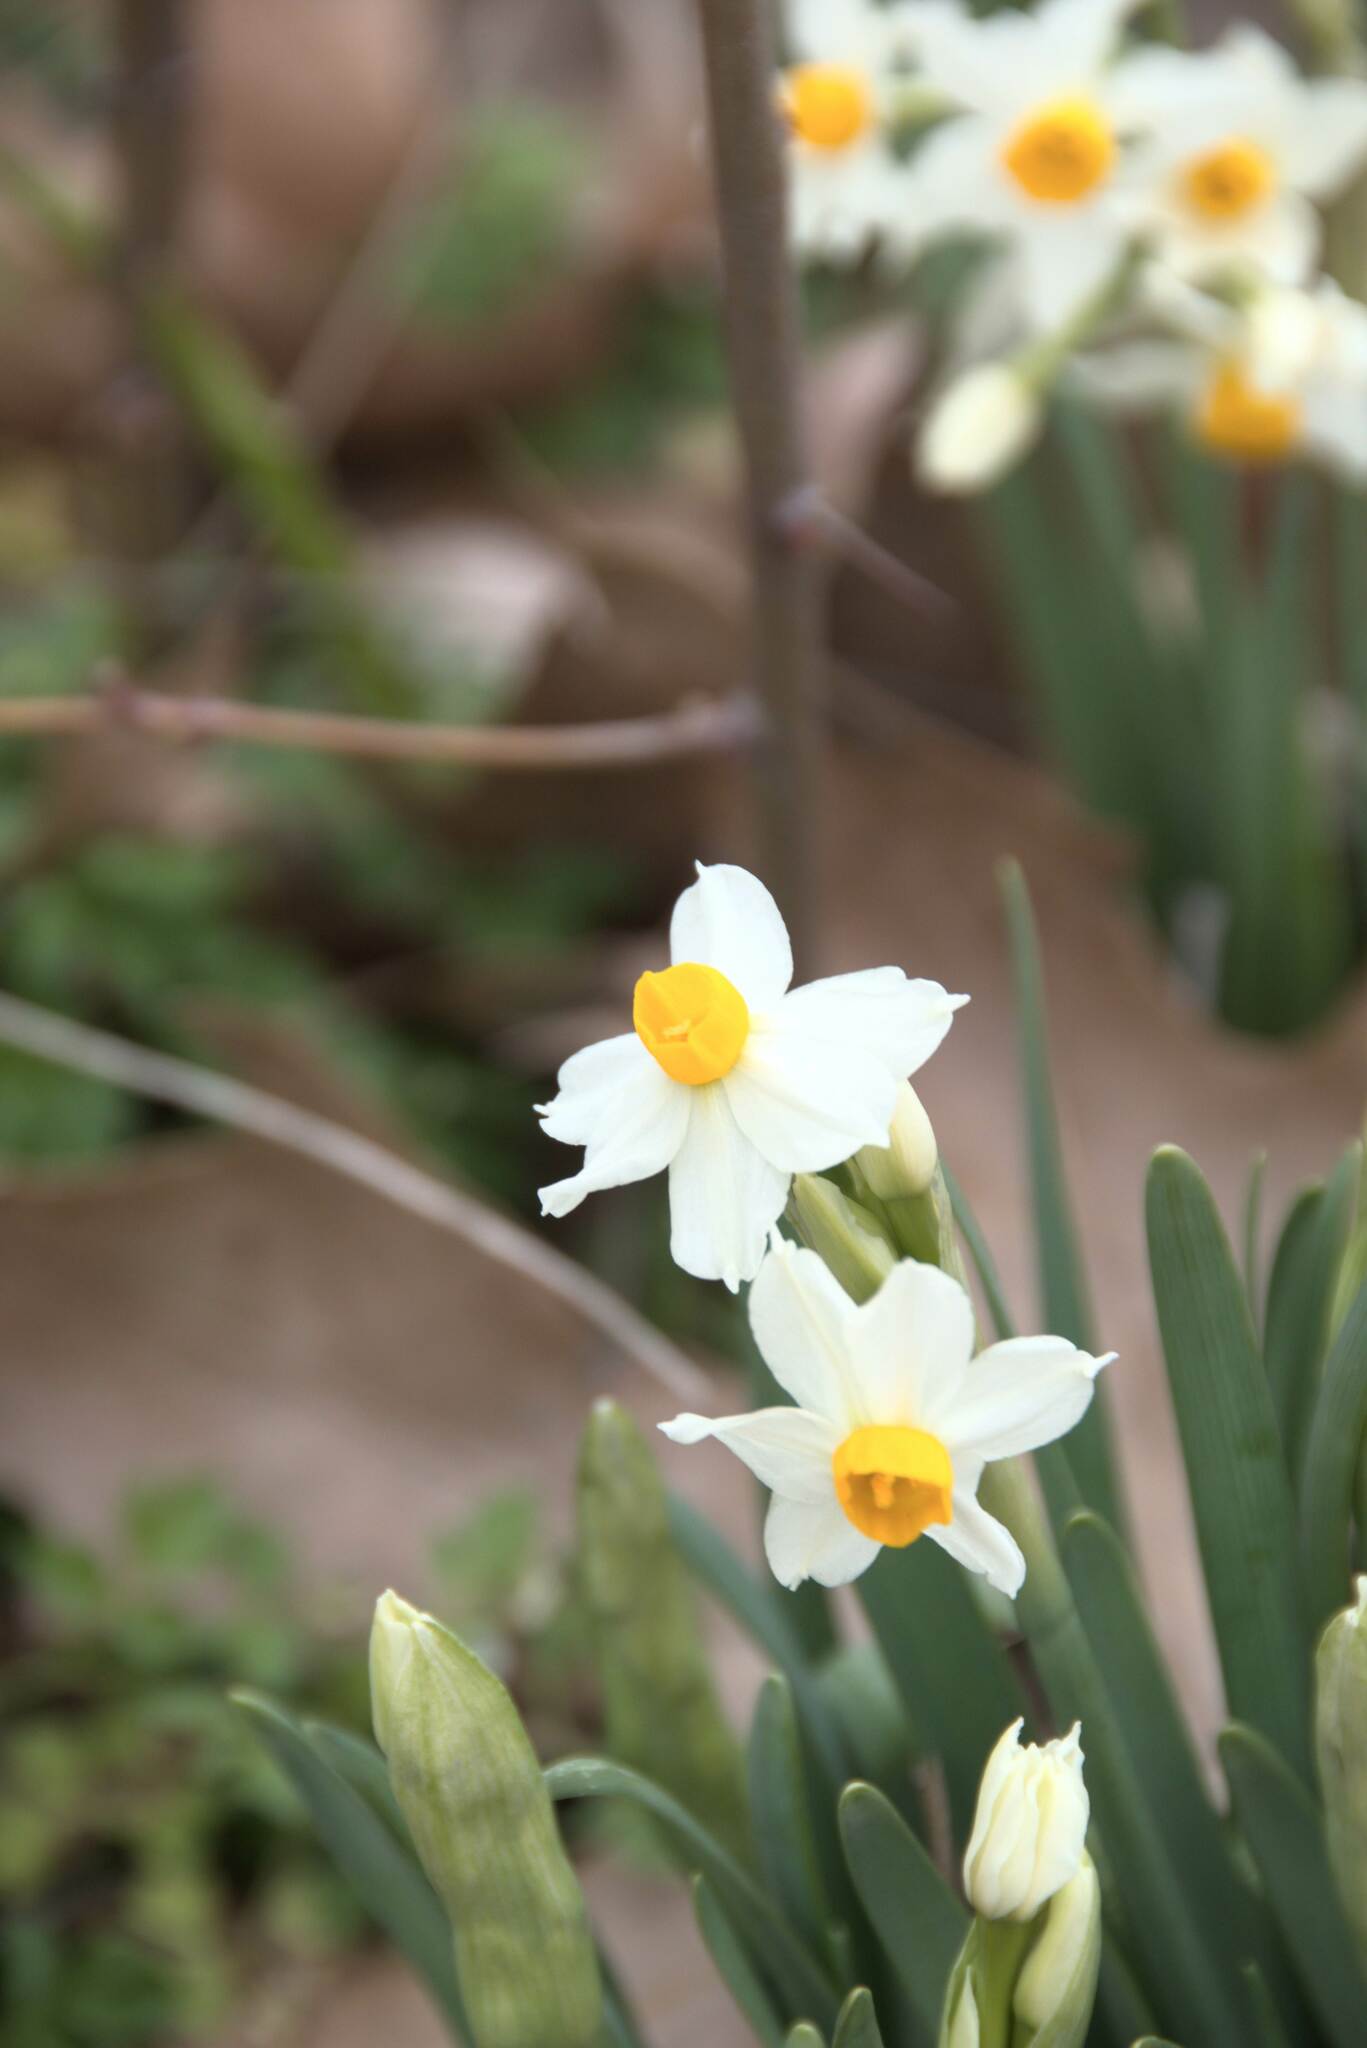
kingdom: Plantae
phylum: Tracheophyta
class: Liliopsida
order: Asparagales
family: Amaryllidaceae
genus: Narcissus
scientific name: Narcissus tazetta
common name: Bunch-flowered daffodil
